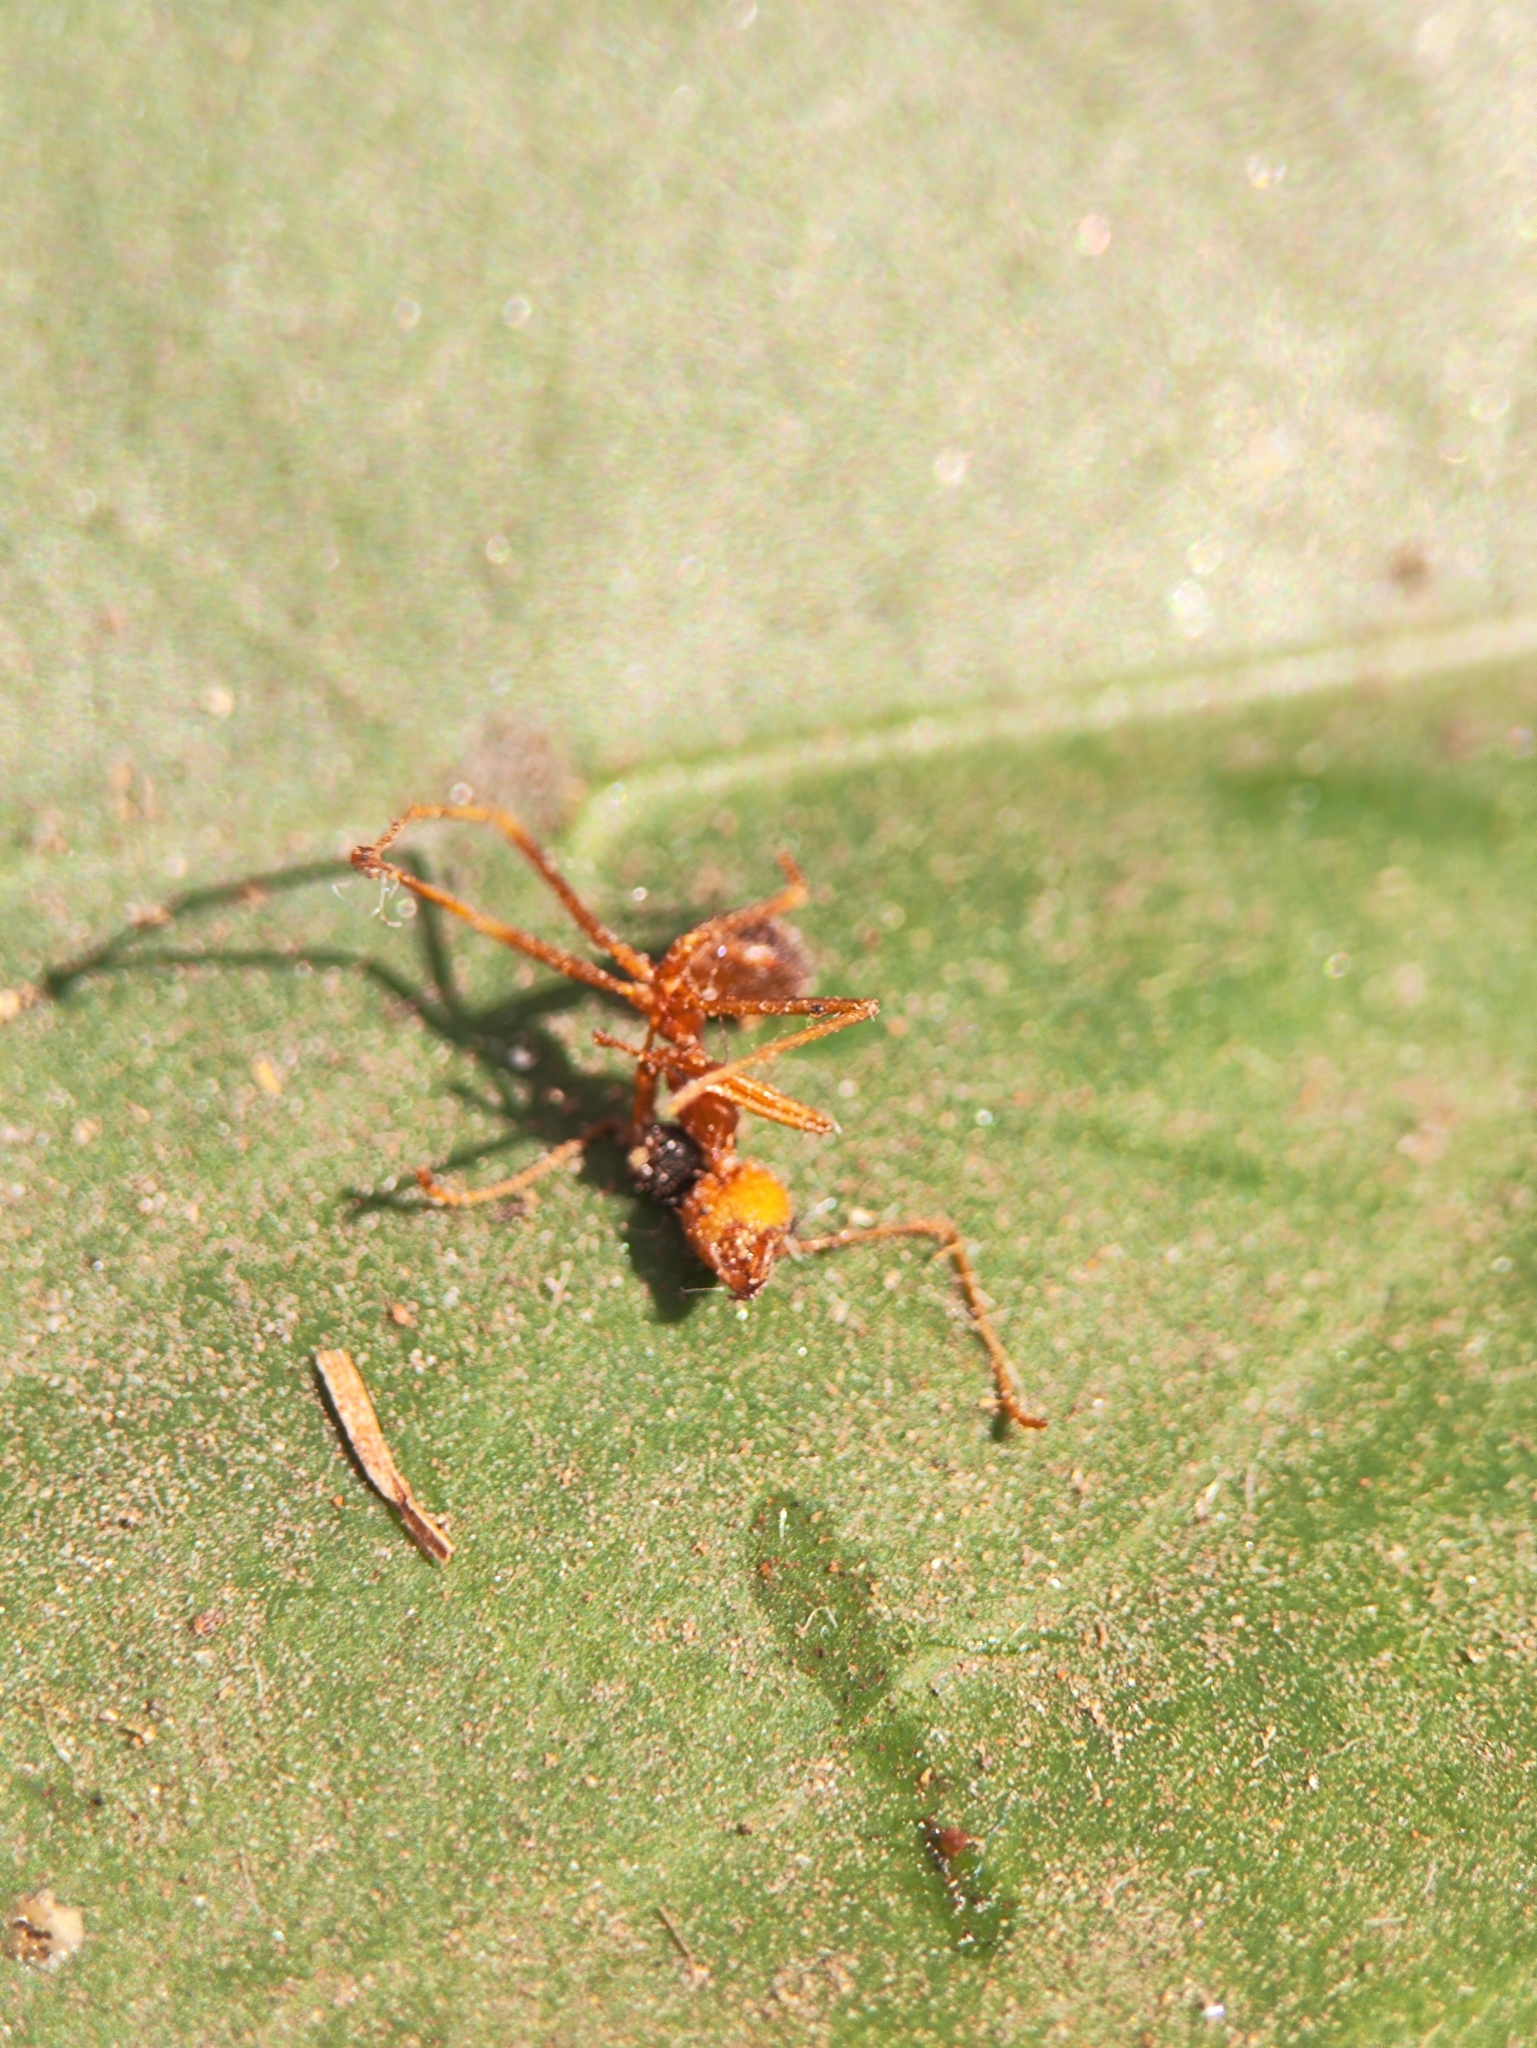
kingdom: Animalia
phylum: Arthropoda
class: Insecta
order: Hymenoptera
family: Formicidae
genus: Oecophylla
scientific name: Oecophylla smaragdina
